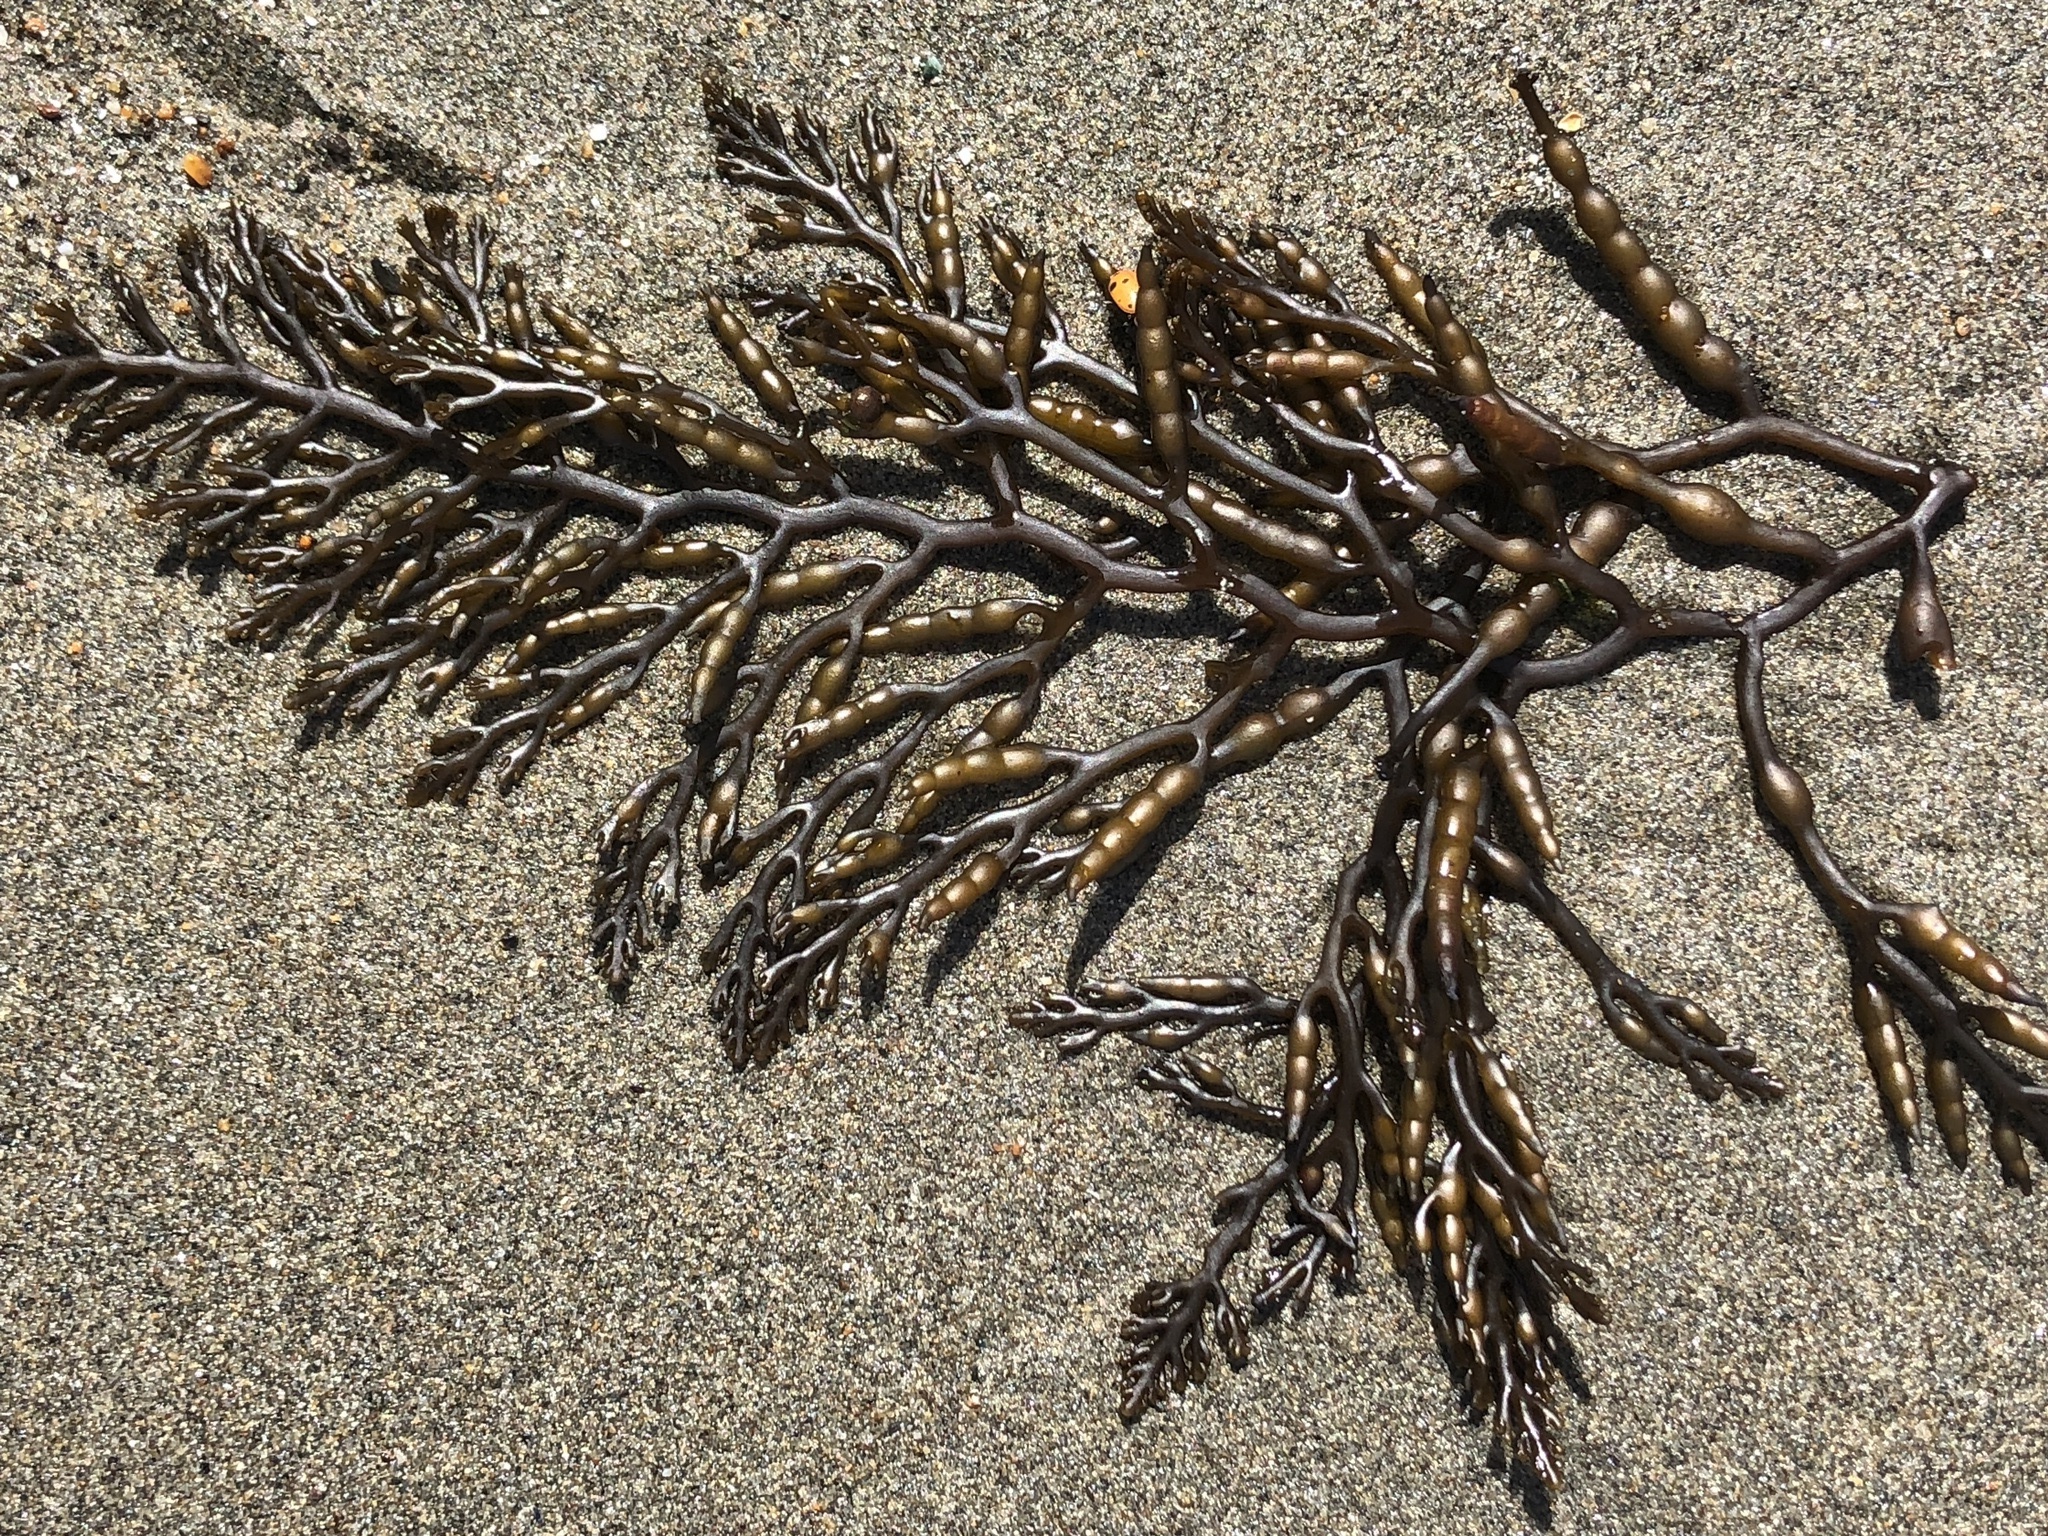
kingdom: Chromista
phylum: Ochrophyta
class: Phaeophyceae
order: Fucales
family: Sargassaceae
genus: Stephanocystis
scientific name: Stephanocystis
